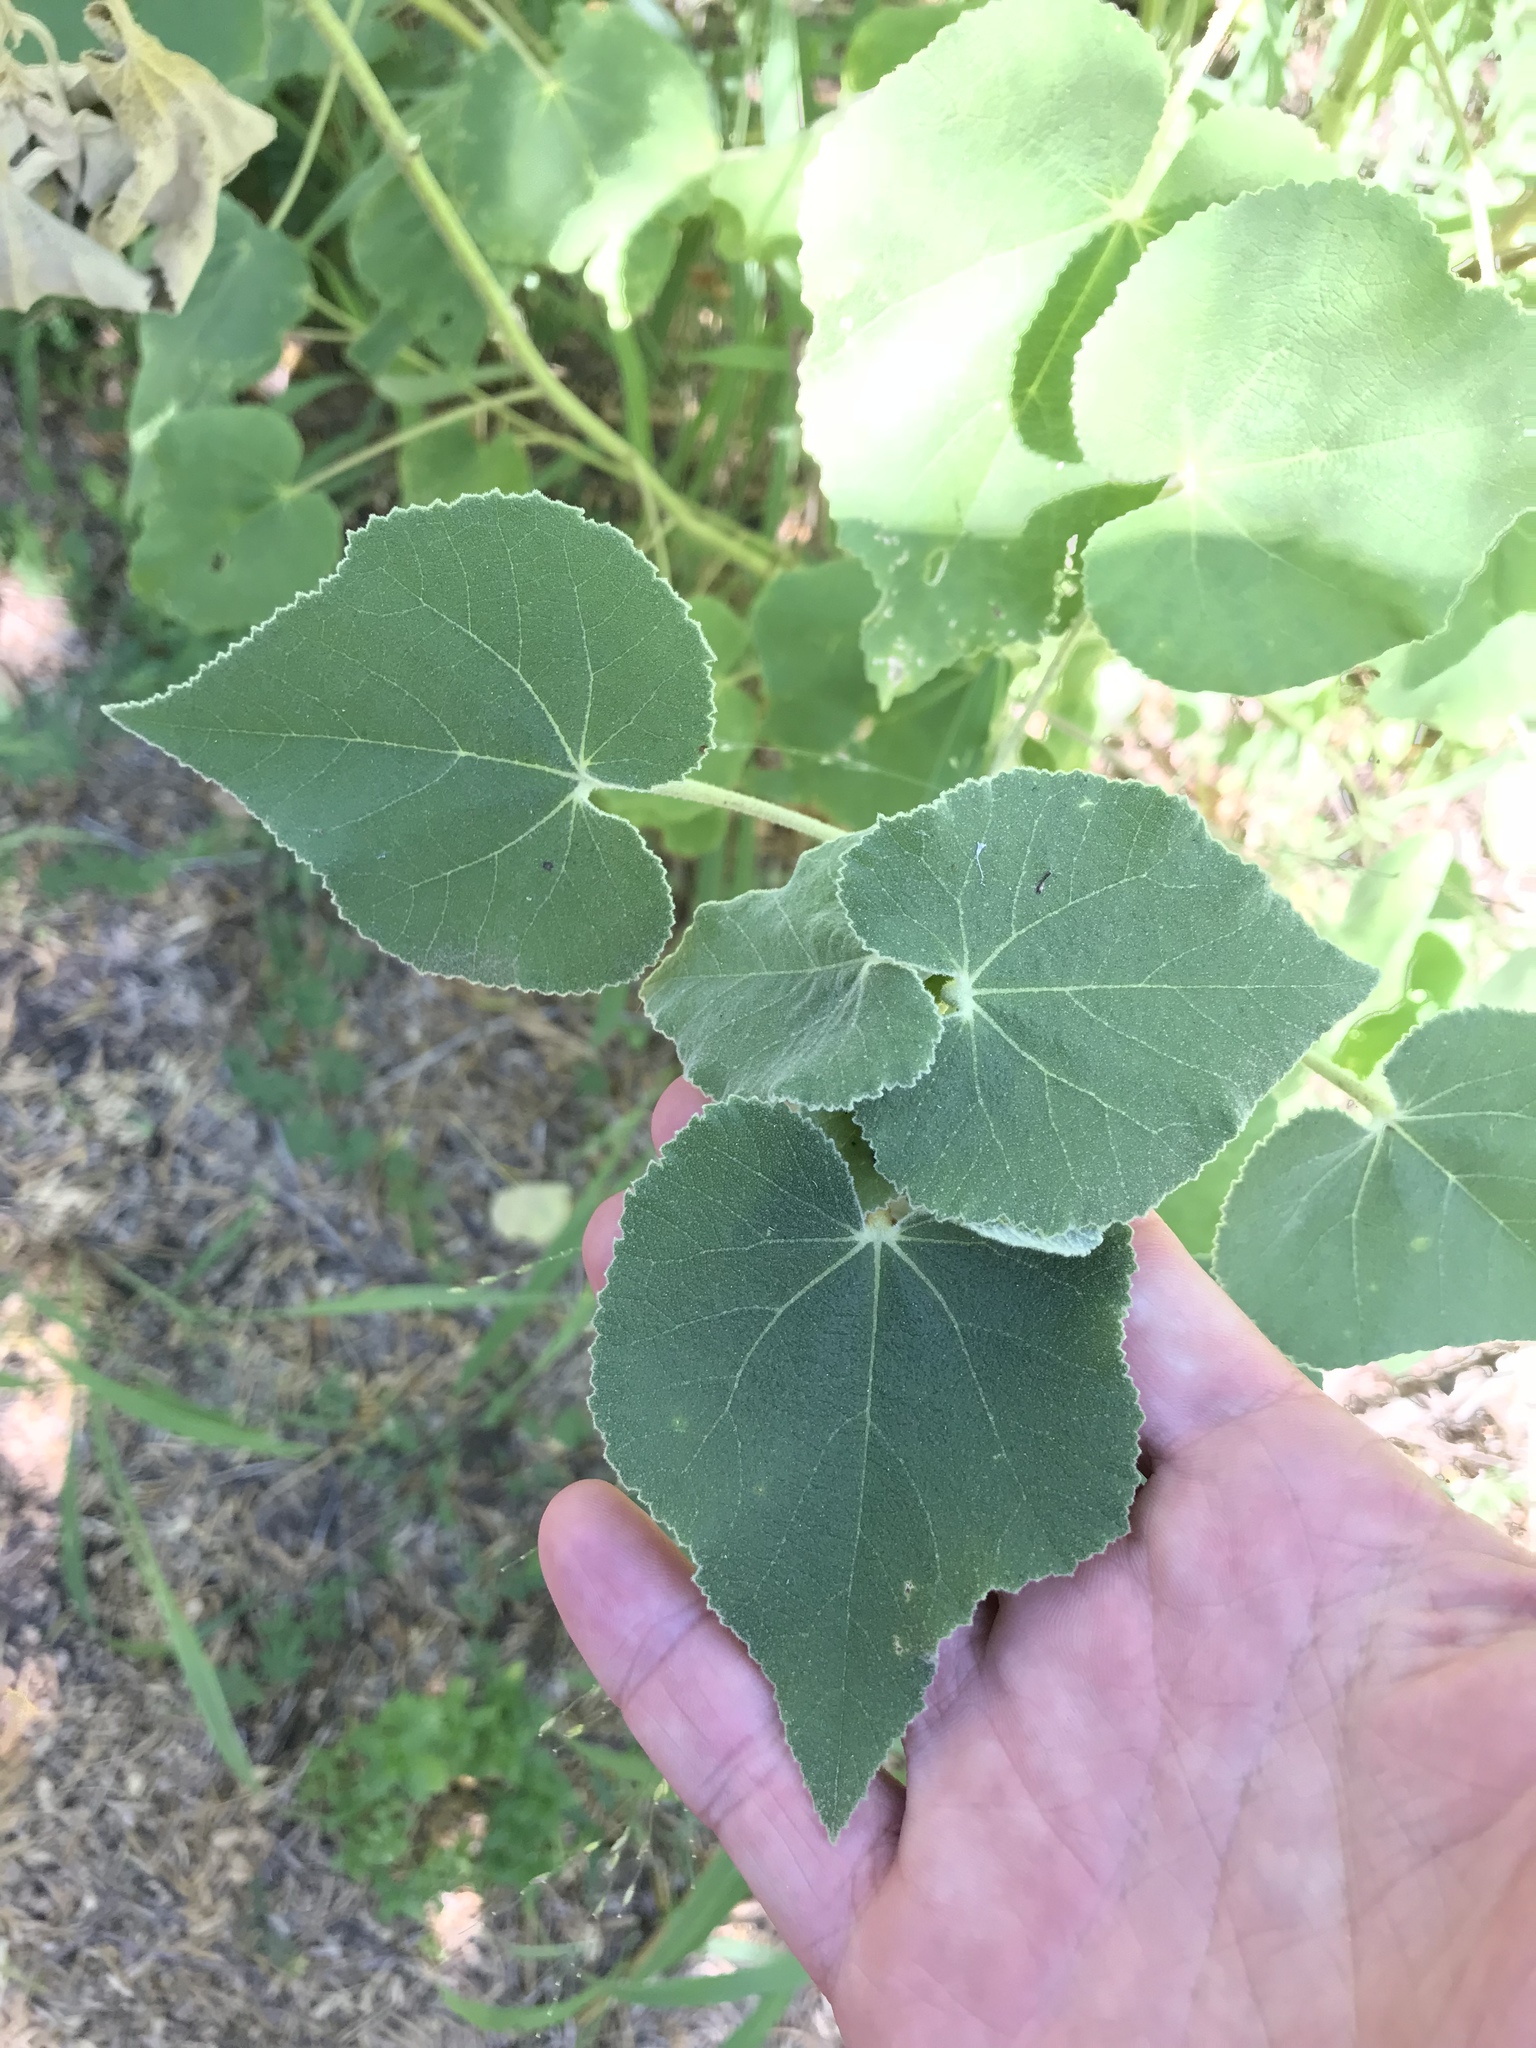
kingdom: Plantae
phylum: Tracheophyta
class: Magnoliopsida
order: Malvales
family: Malvaceae
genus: Allowissadula
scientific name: Allowissadula lozanoi
